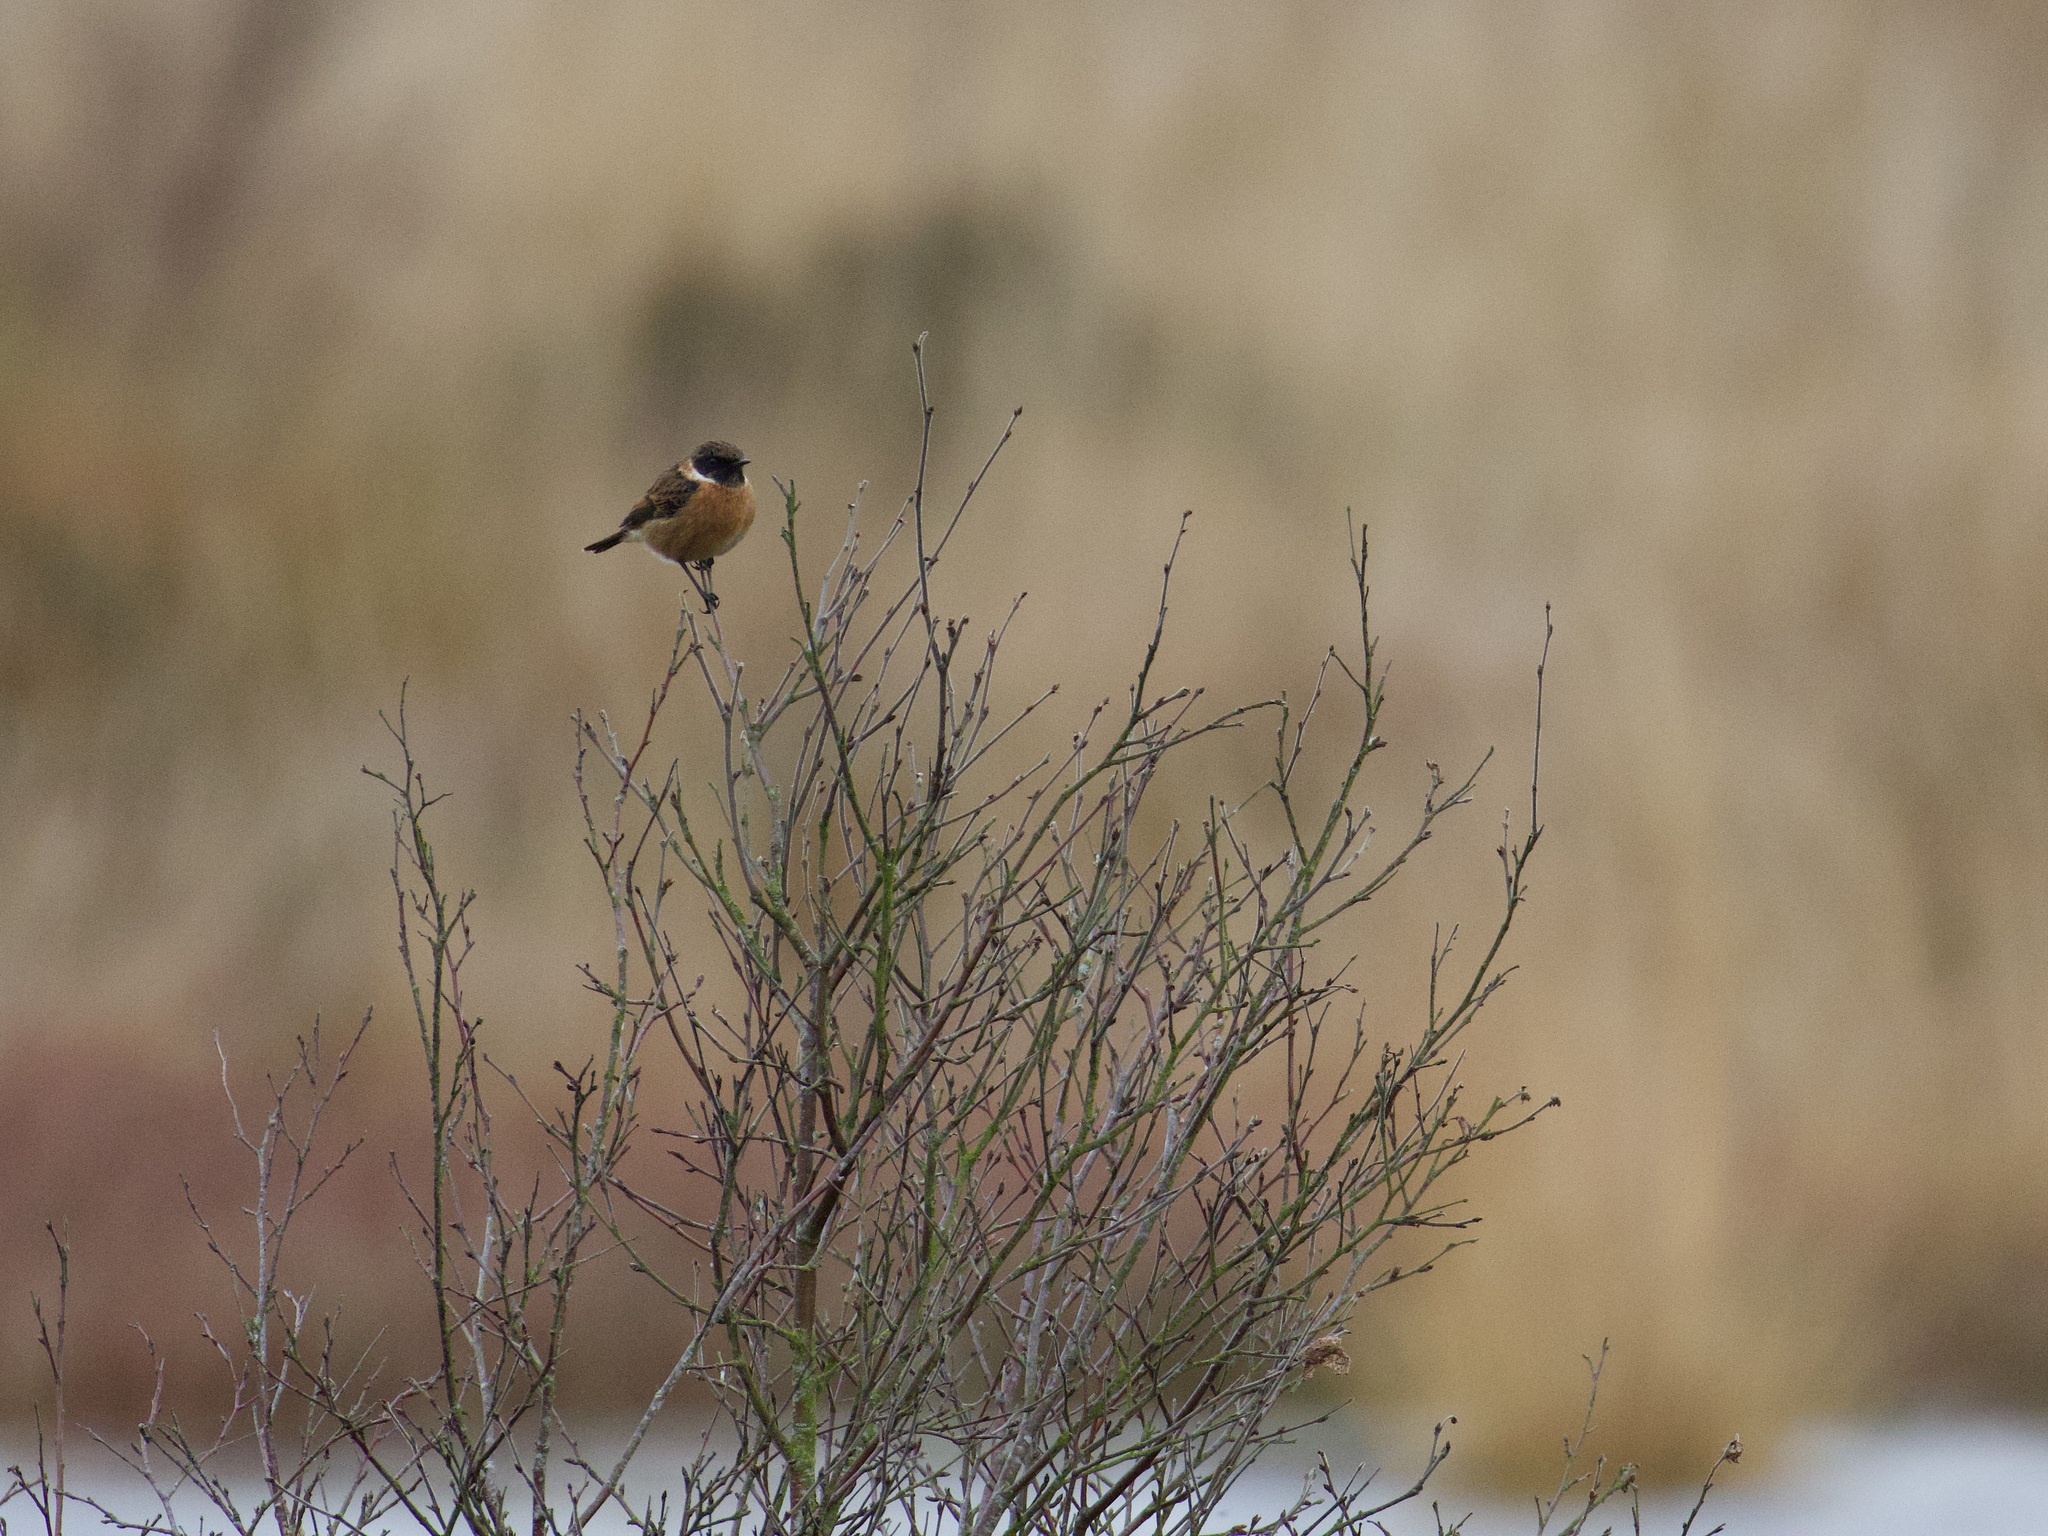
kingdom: Animalia
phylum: Chordata
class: Aves
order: Passeriformes
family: Muscicapidae
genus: Saxicola
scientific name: Saxicola rubicola
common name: European stonechat
